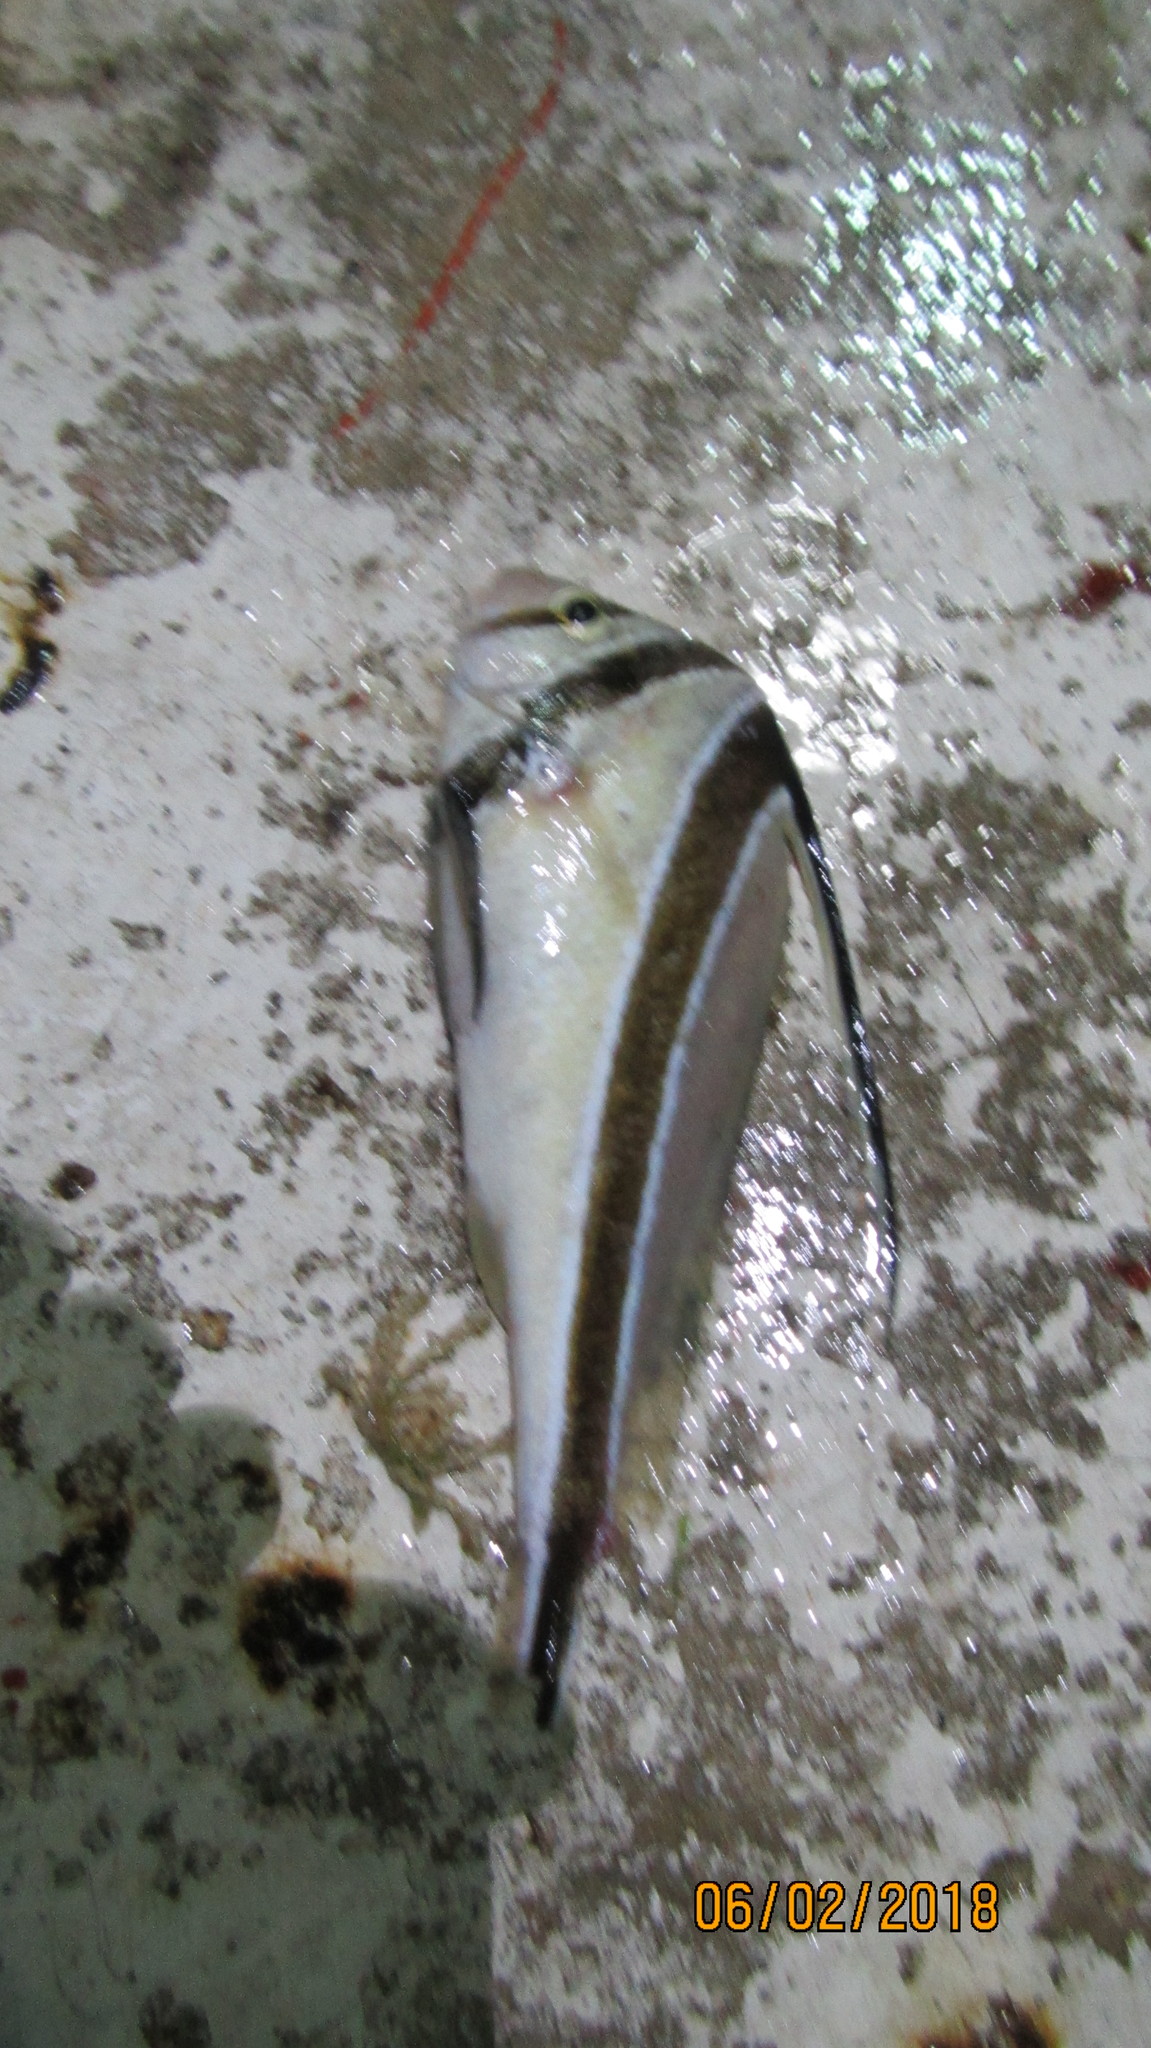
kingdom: Animalia
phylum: Chordata
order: Perciformes
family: Sciaenidae
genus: Equetus
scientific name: Equetus lanceolatus
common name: Jackknife fish
